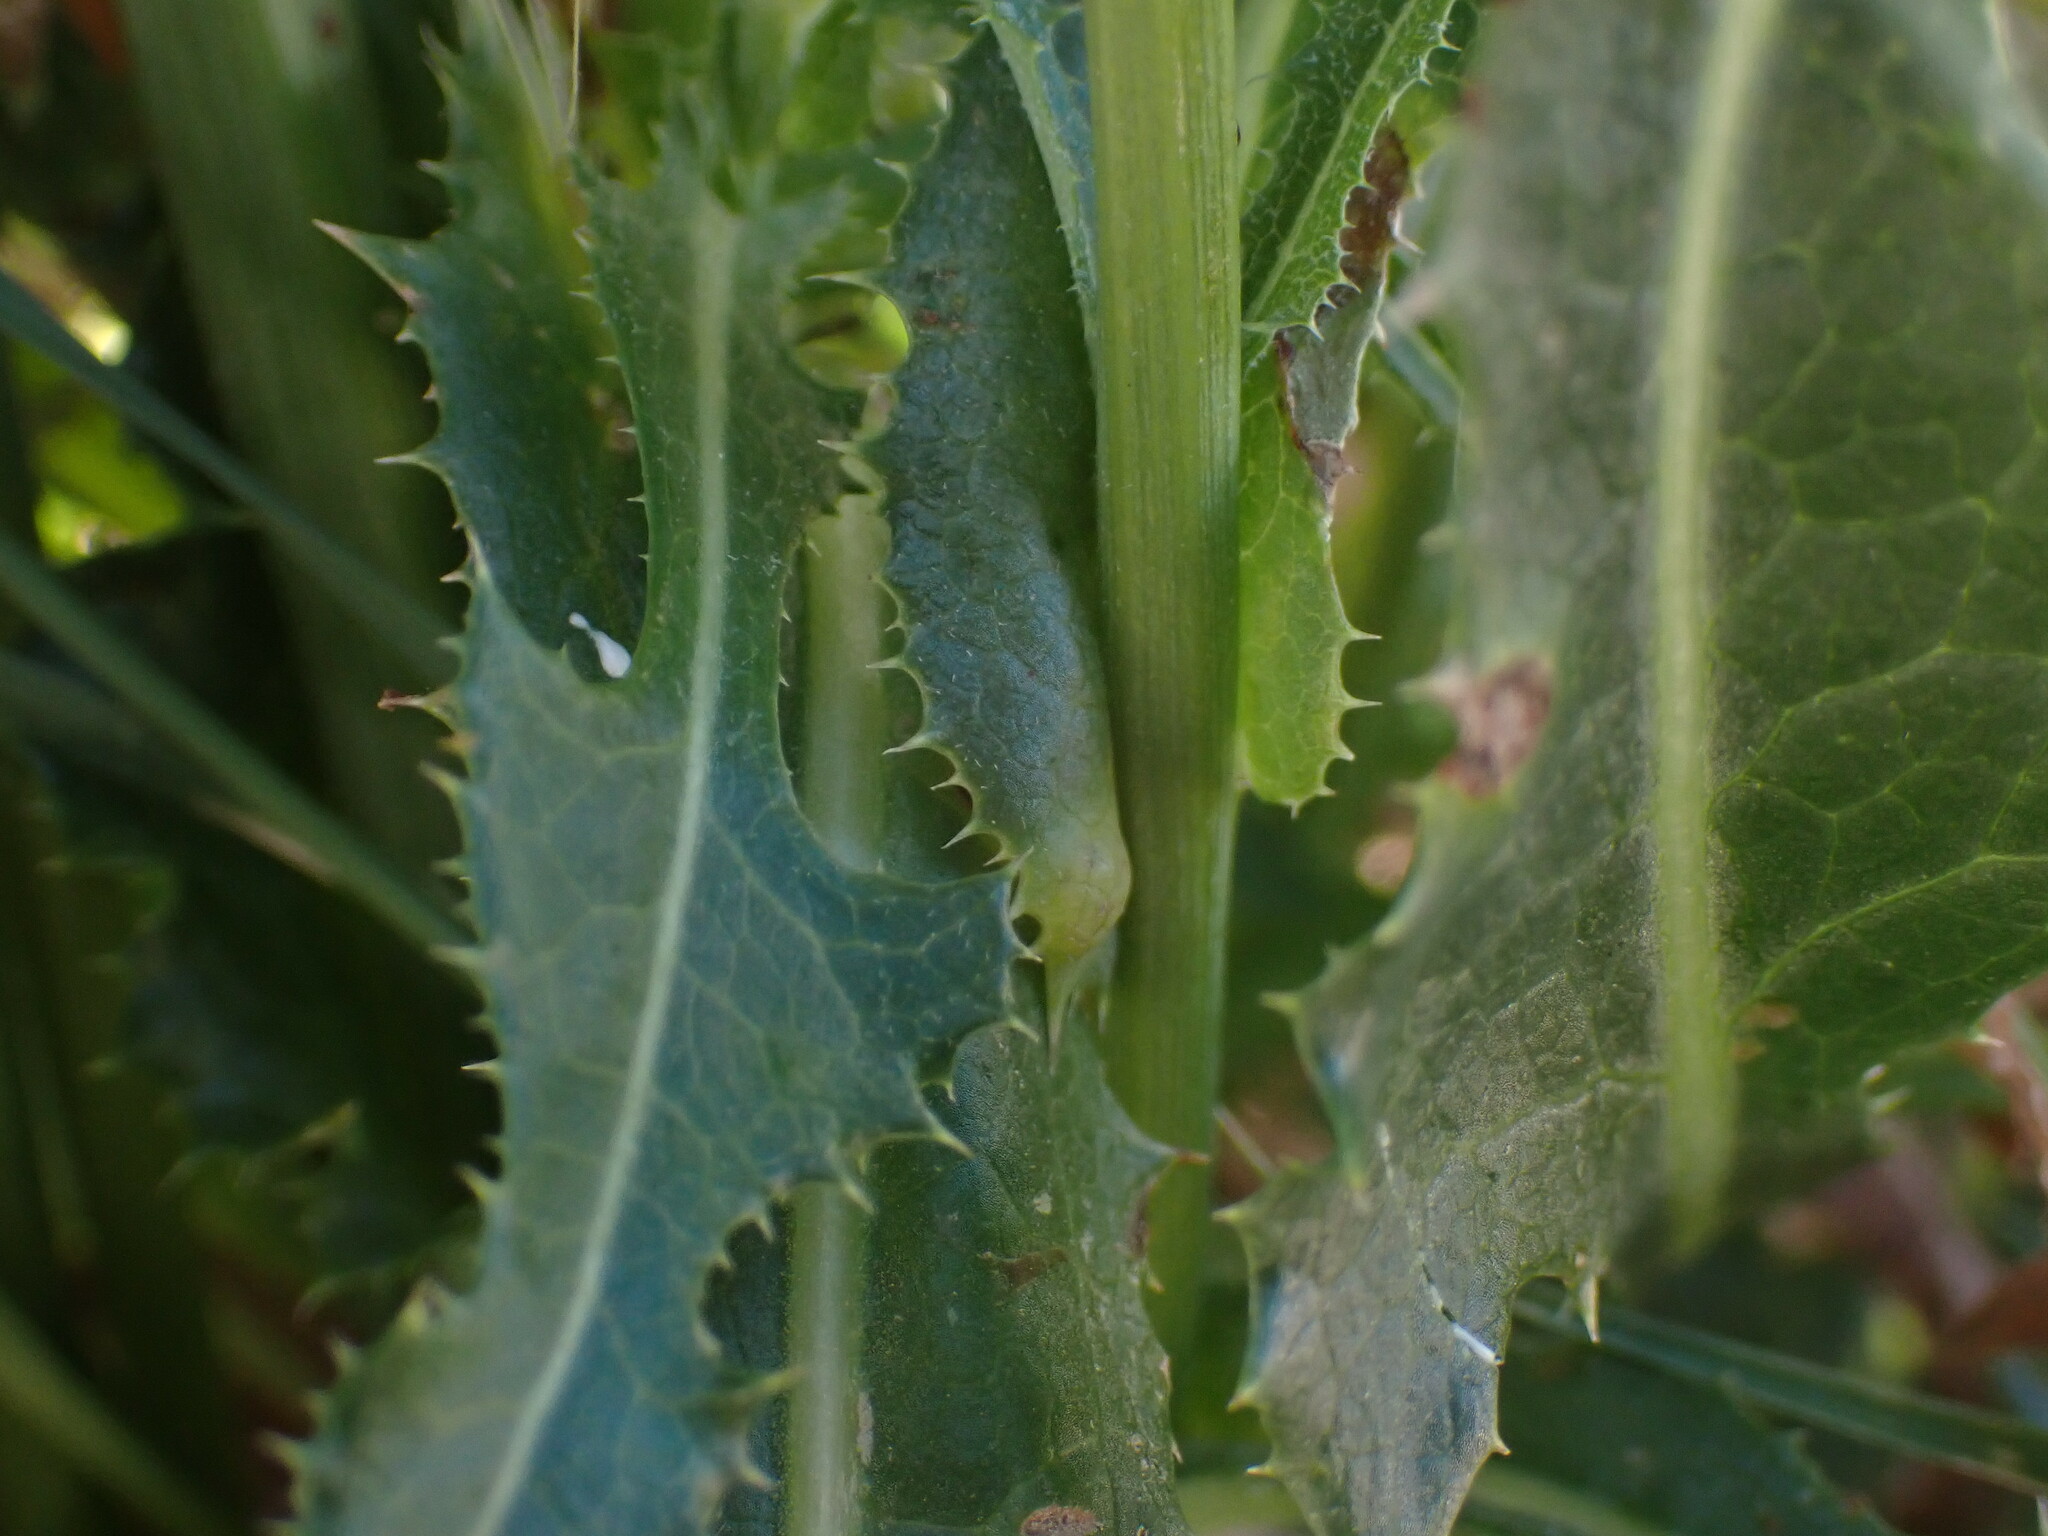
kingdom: Plantae
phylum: Tracheophyta
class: Magnoliopsida
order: Asterales
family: Asteraceae
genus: Sonchus
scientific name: Sonchus arvensis
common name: Perennial sow-thistle
